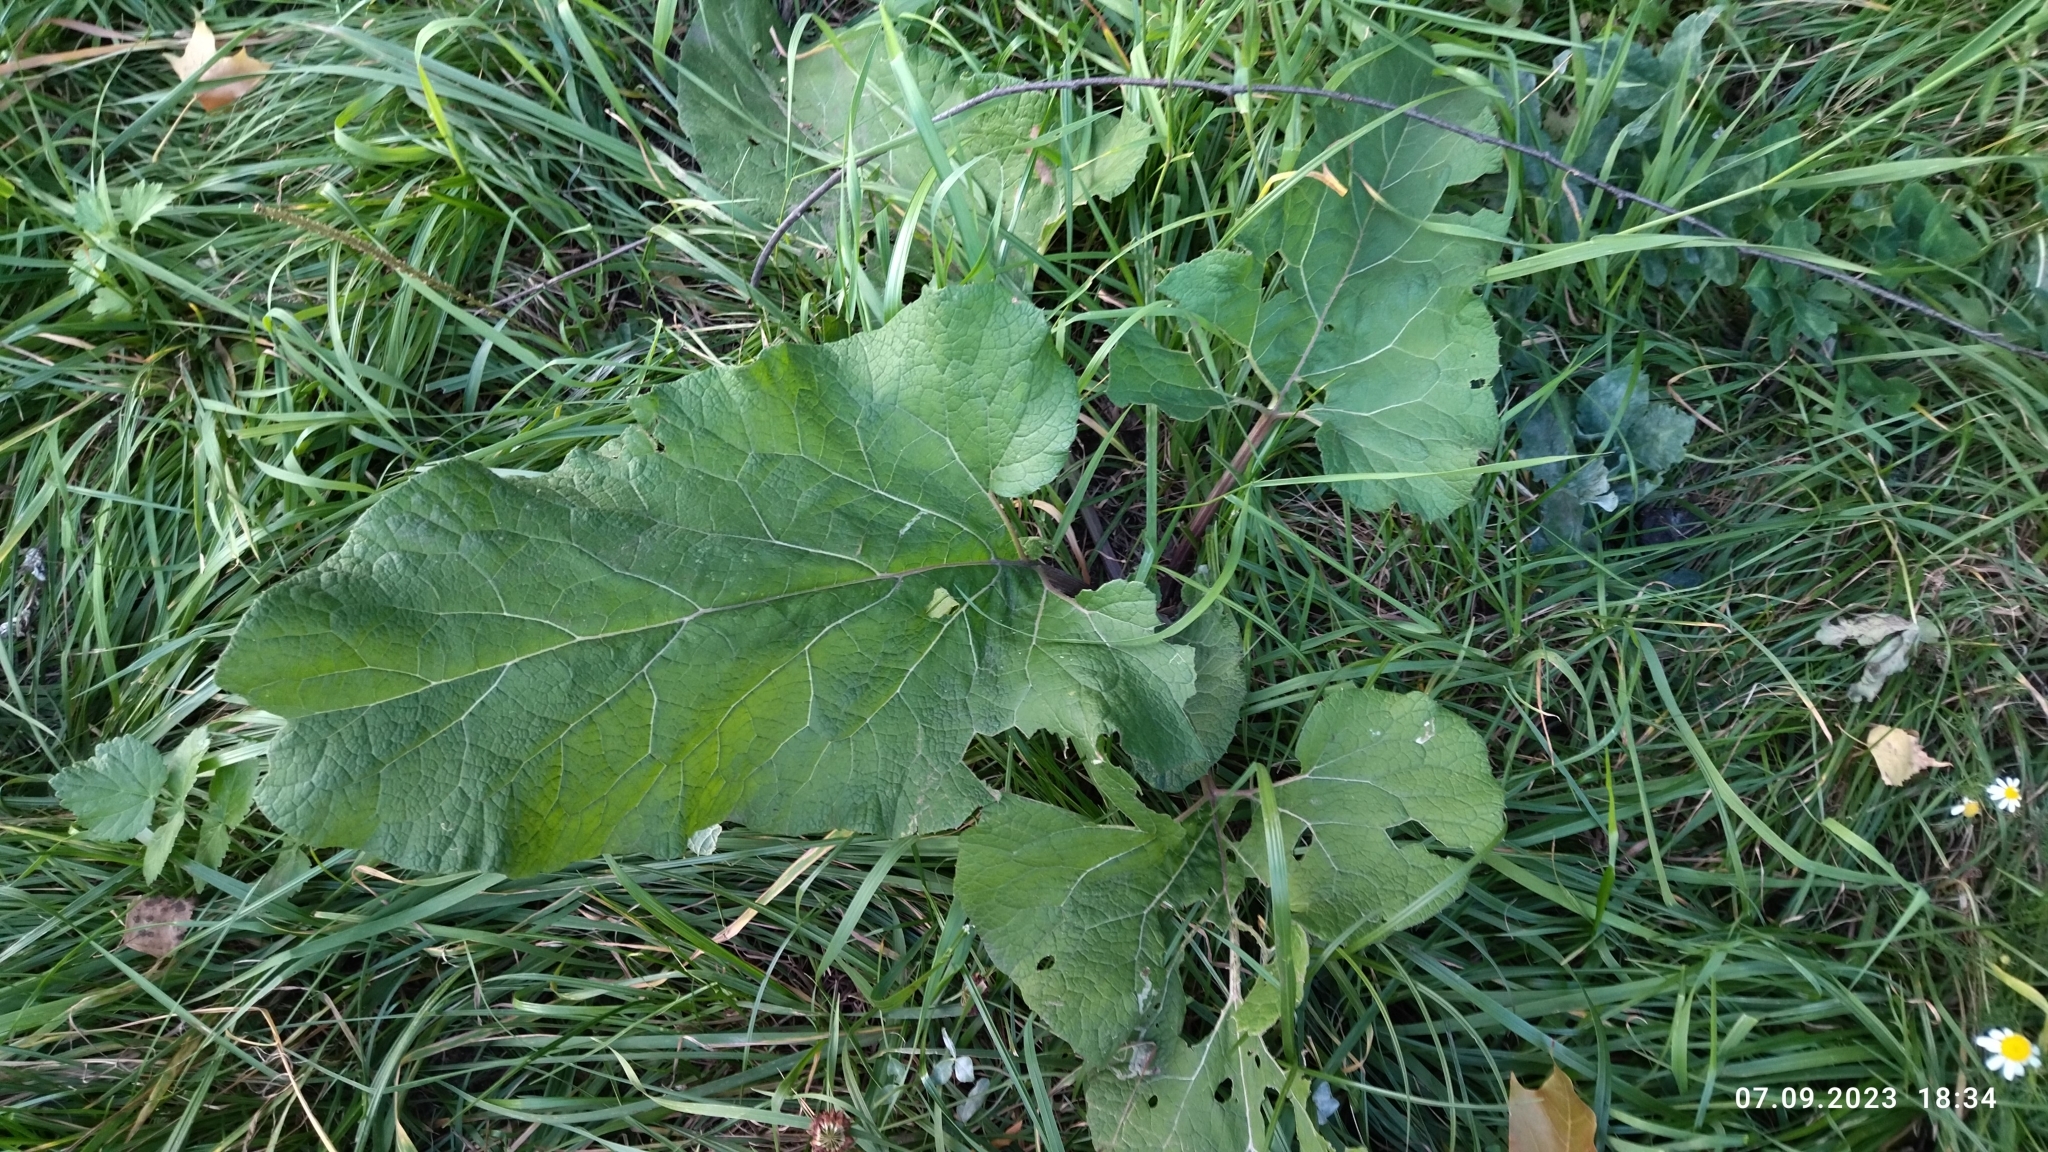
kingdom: Plantae
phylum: Tracheophyta
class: Magnoliopsida
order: Asterales
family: Asteraceae
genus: Arctium
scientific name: Arctium
